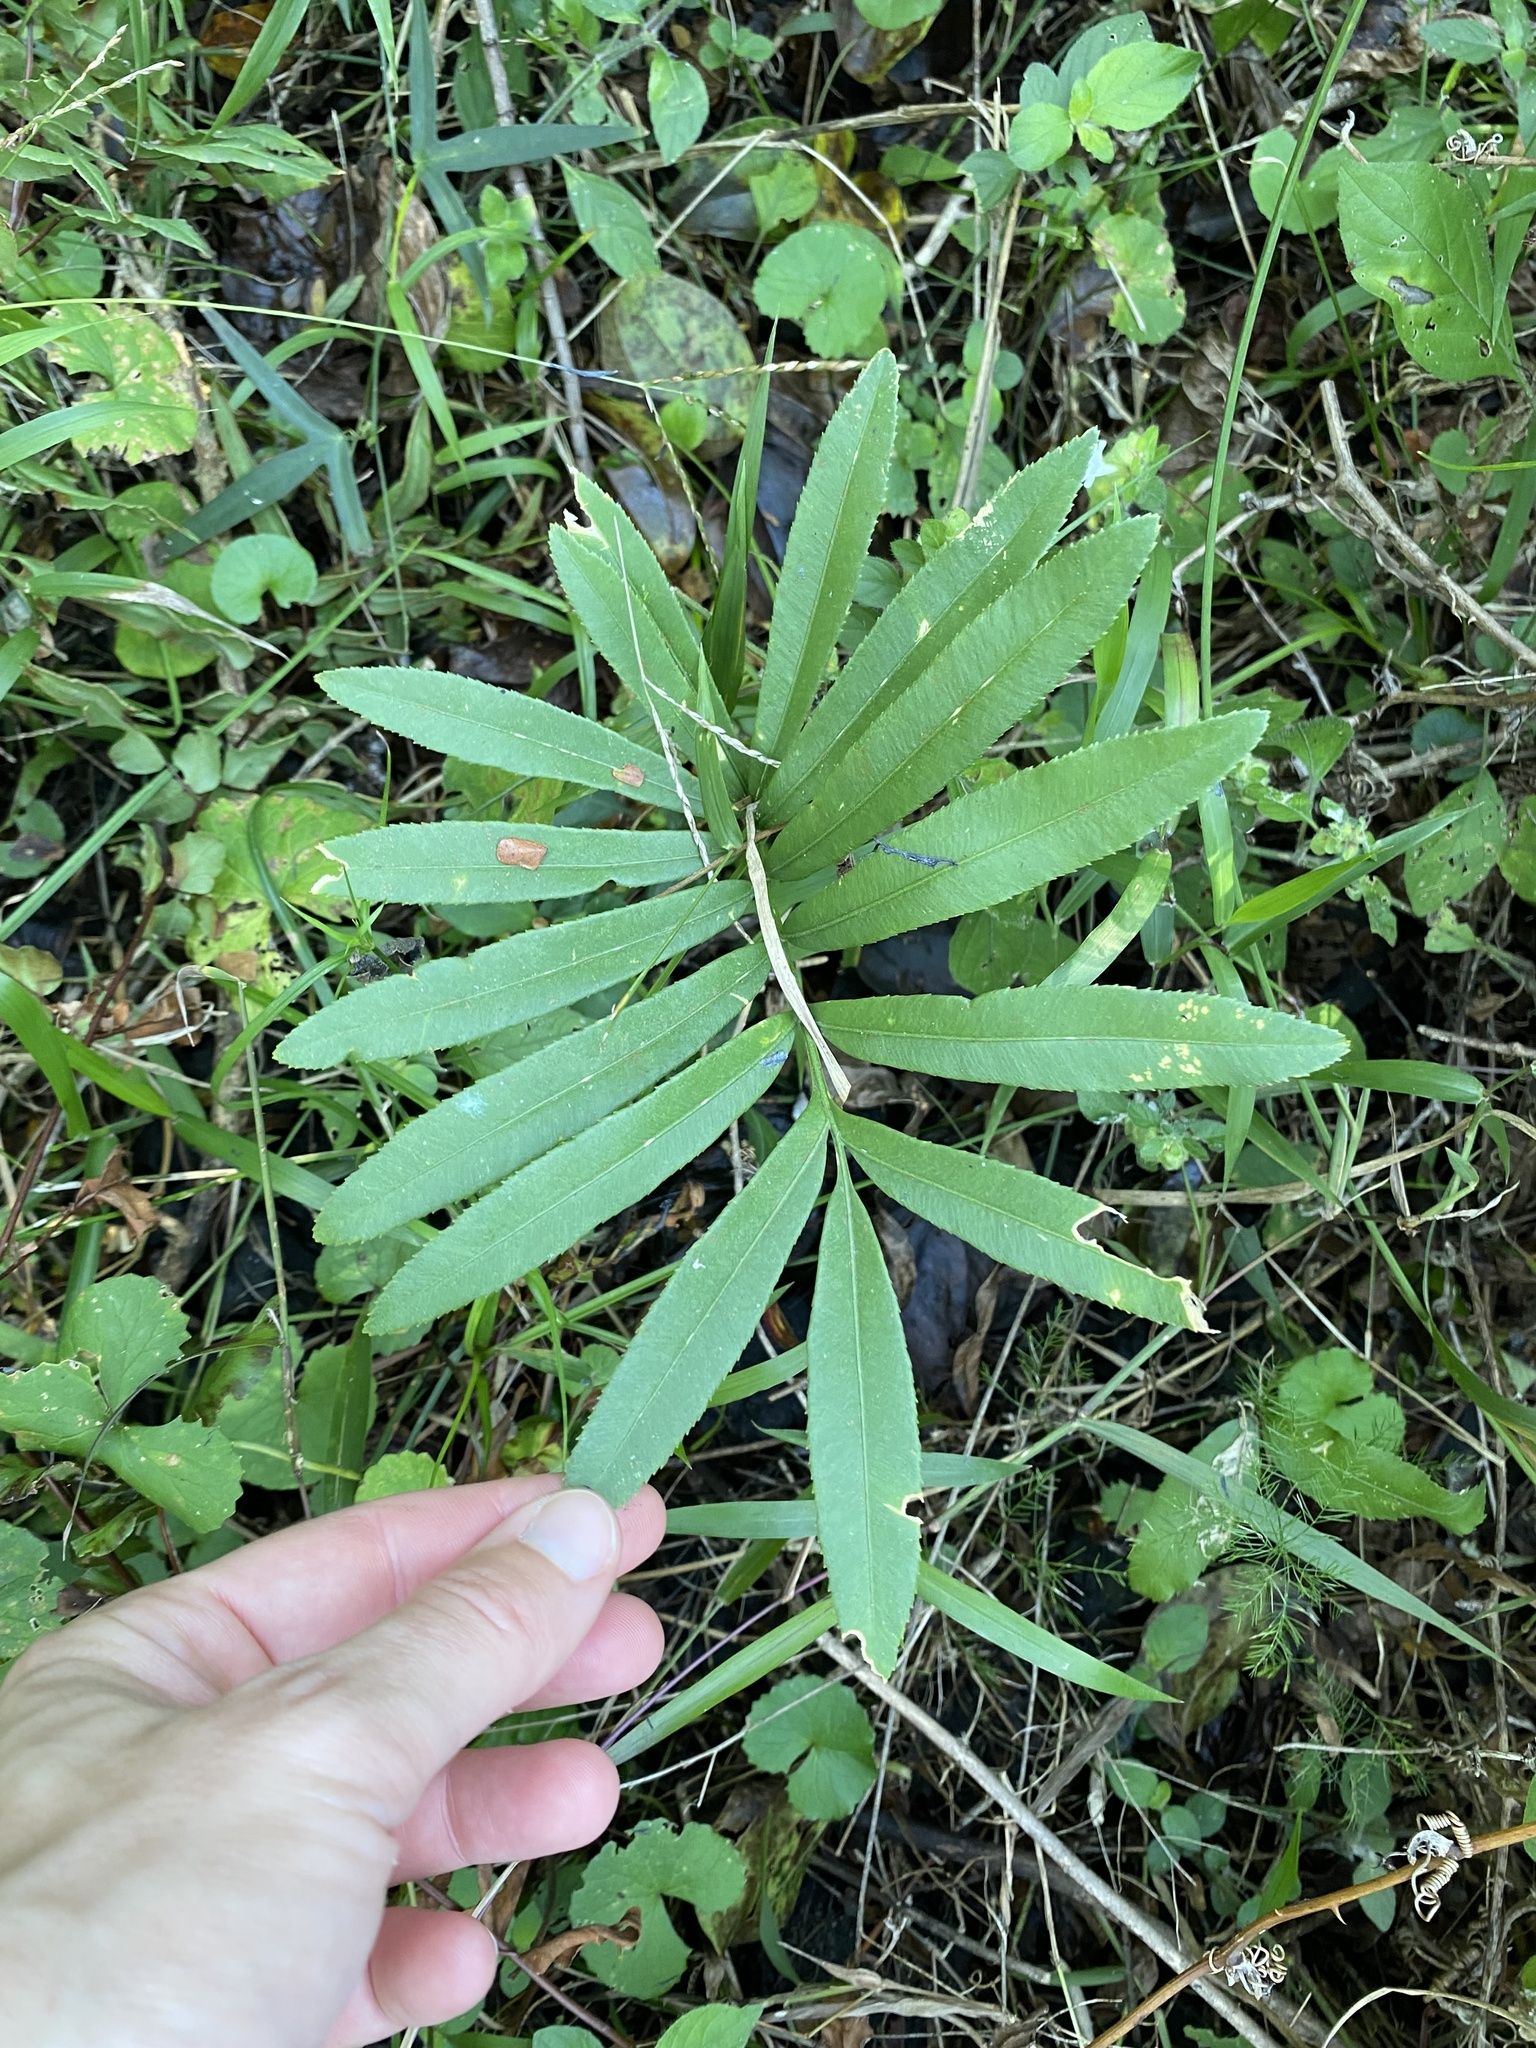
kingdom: Plantae
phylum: Tracheophyta
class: Cycadopsida
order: Cycadales
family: Zamiaceae
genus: Stangeria
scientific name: Stangeria eriopus
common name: Natal grass cycad
